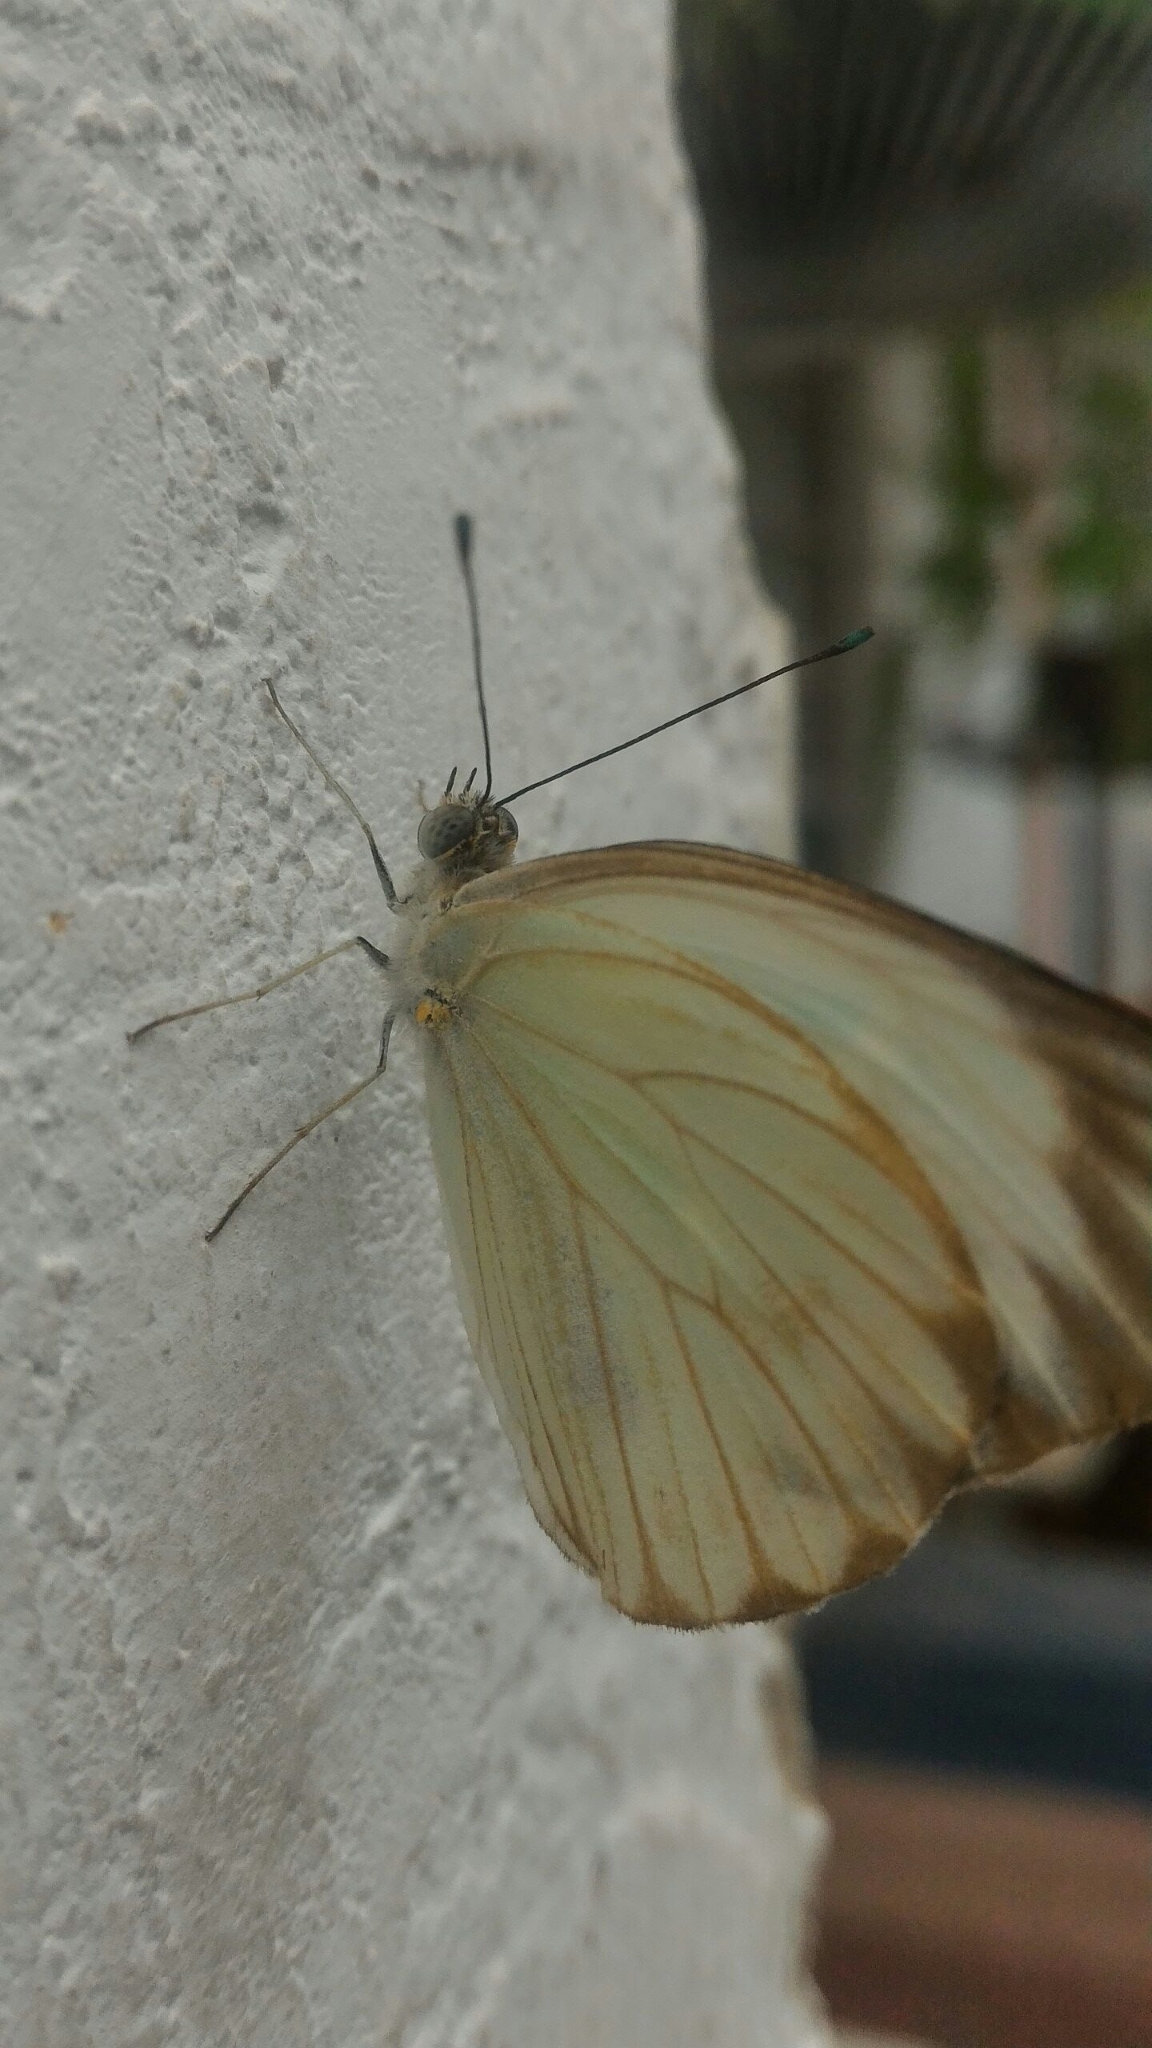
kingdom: Animalia
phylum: Arthropoda
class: Insecta
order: Lepidoptera
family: Pieridae
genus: Ascia
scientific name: Ascia monuste
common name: Great southern white
